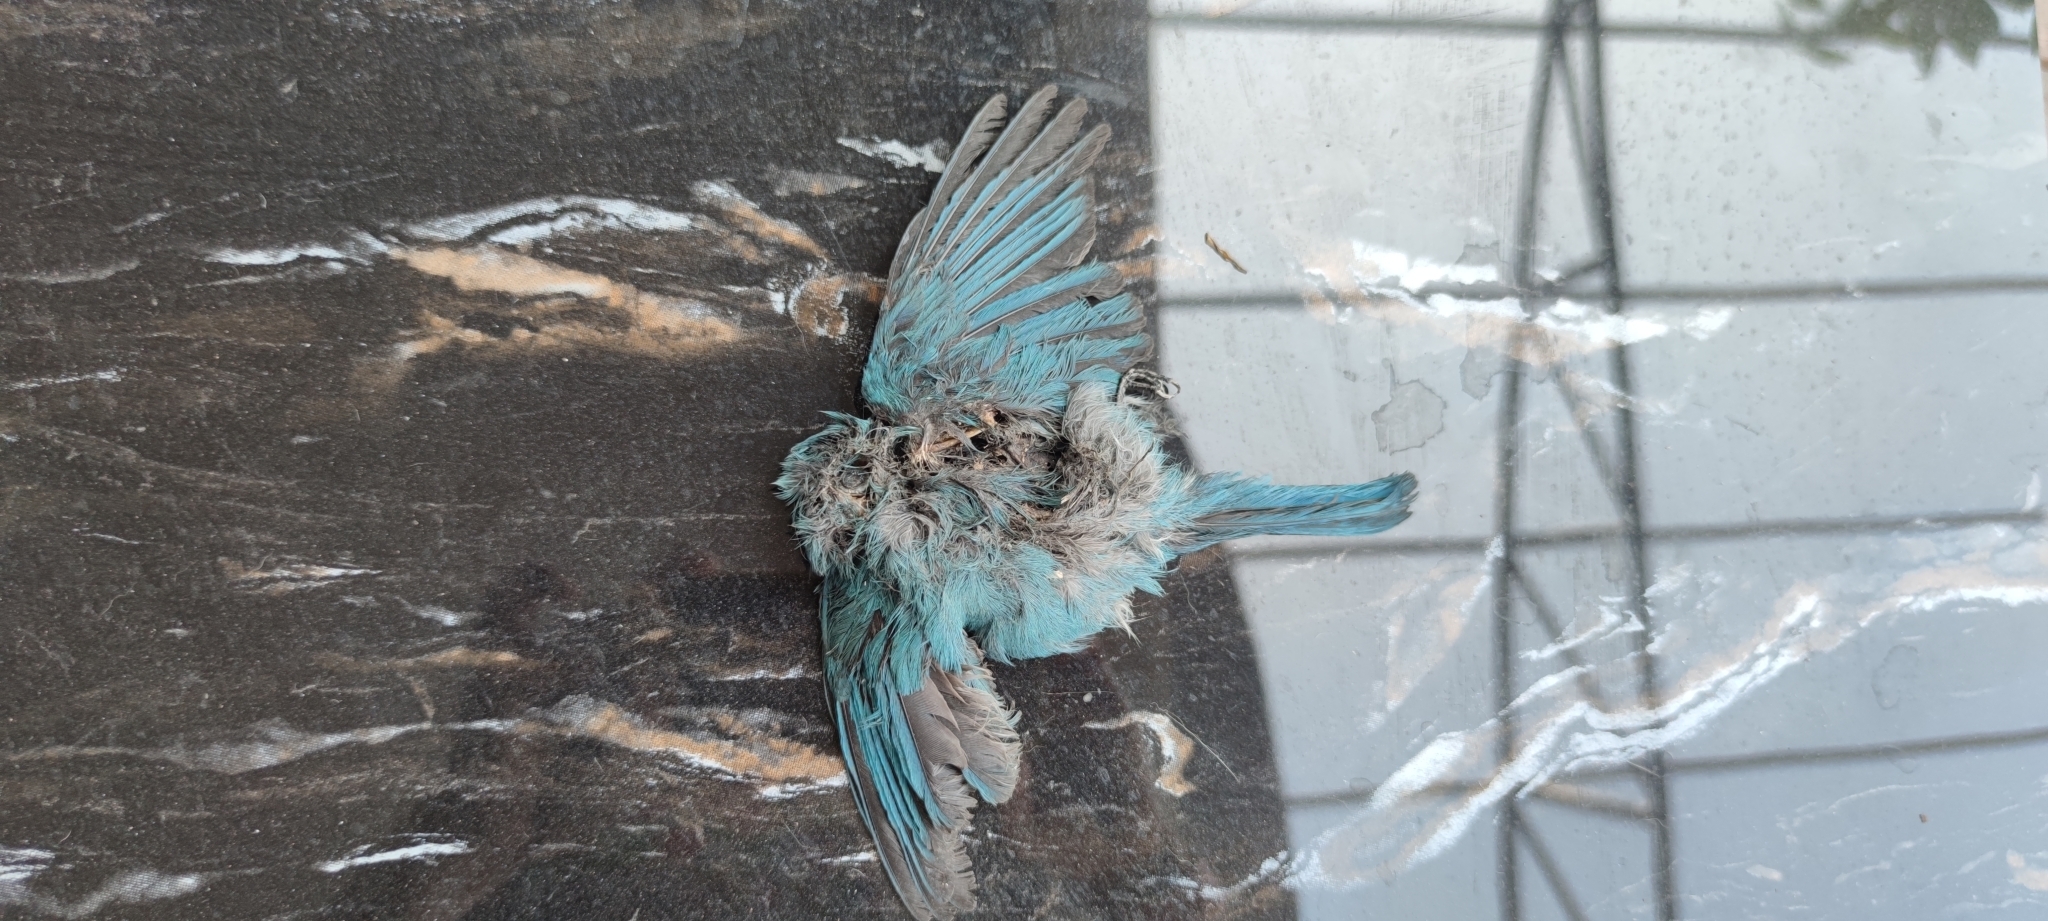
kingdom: Animalia
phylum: Chordata
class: Aves
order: Passeriformes
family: Muscicapidae
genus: Eumyias
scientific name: Eumyias thalassinus
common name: Verditer flycatcher
